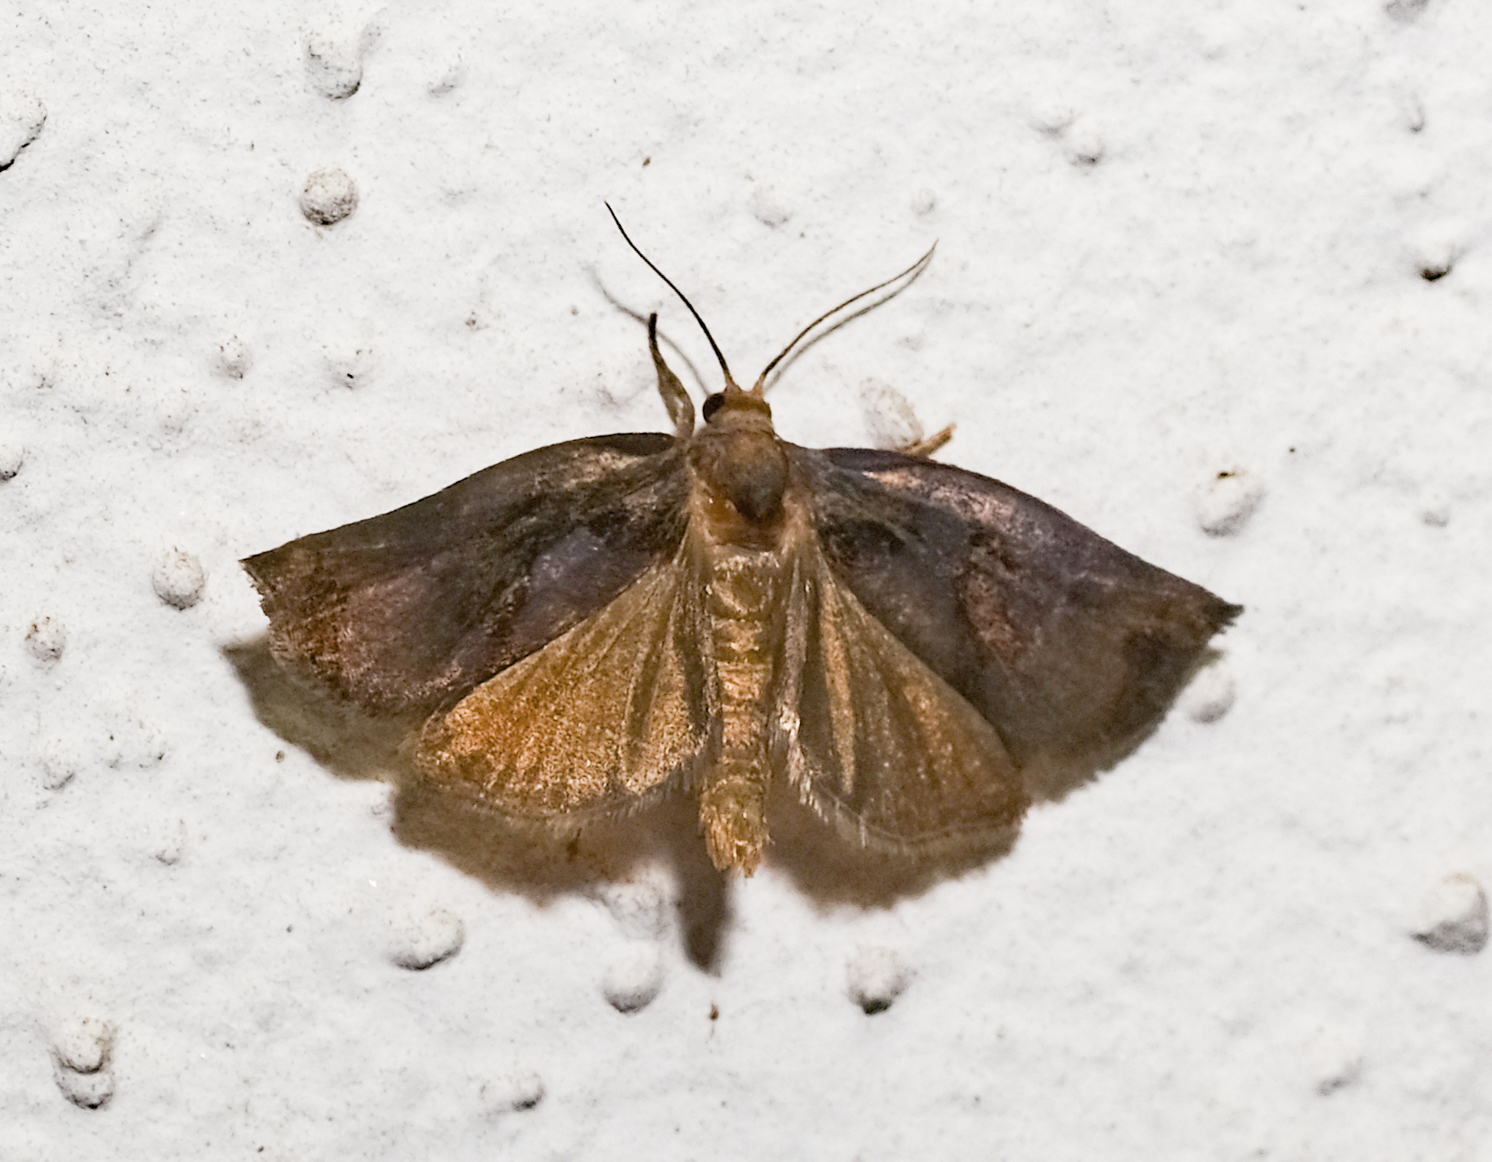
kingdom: Animalia
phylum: Arthropoda
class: Insecta
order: Lepidoptera
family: Tortricidae
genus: Archips
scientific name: Archips podana
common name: Large fruit-tree tortrix
